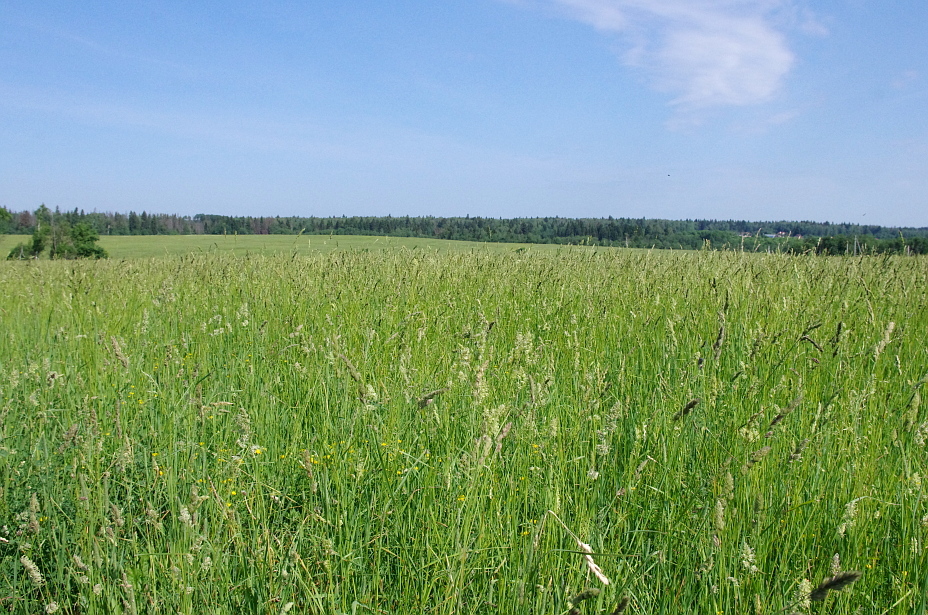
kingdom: Plantae
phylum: Tracheophyta
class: Liliopsida
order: Poales
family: Poaceae
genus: Dactylis
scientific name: Dactylis glomerata
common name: Orchardgrass
